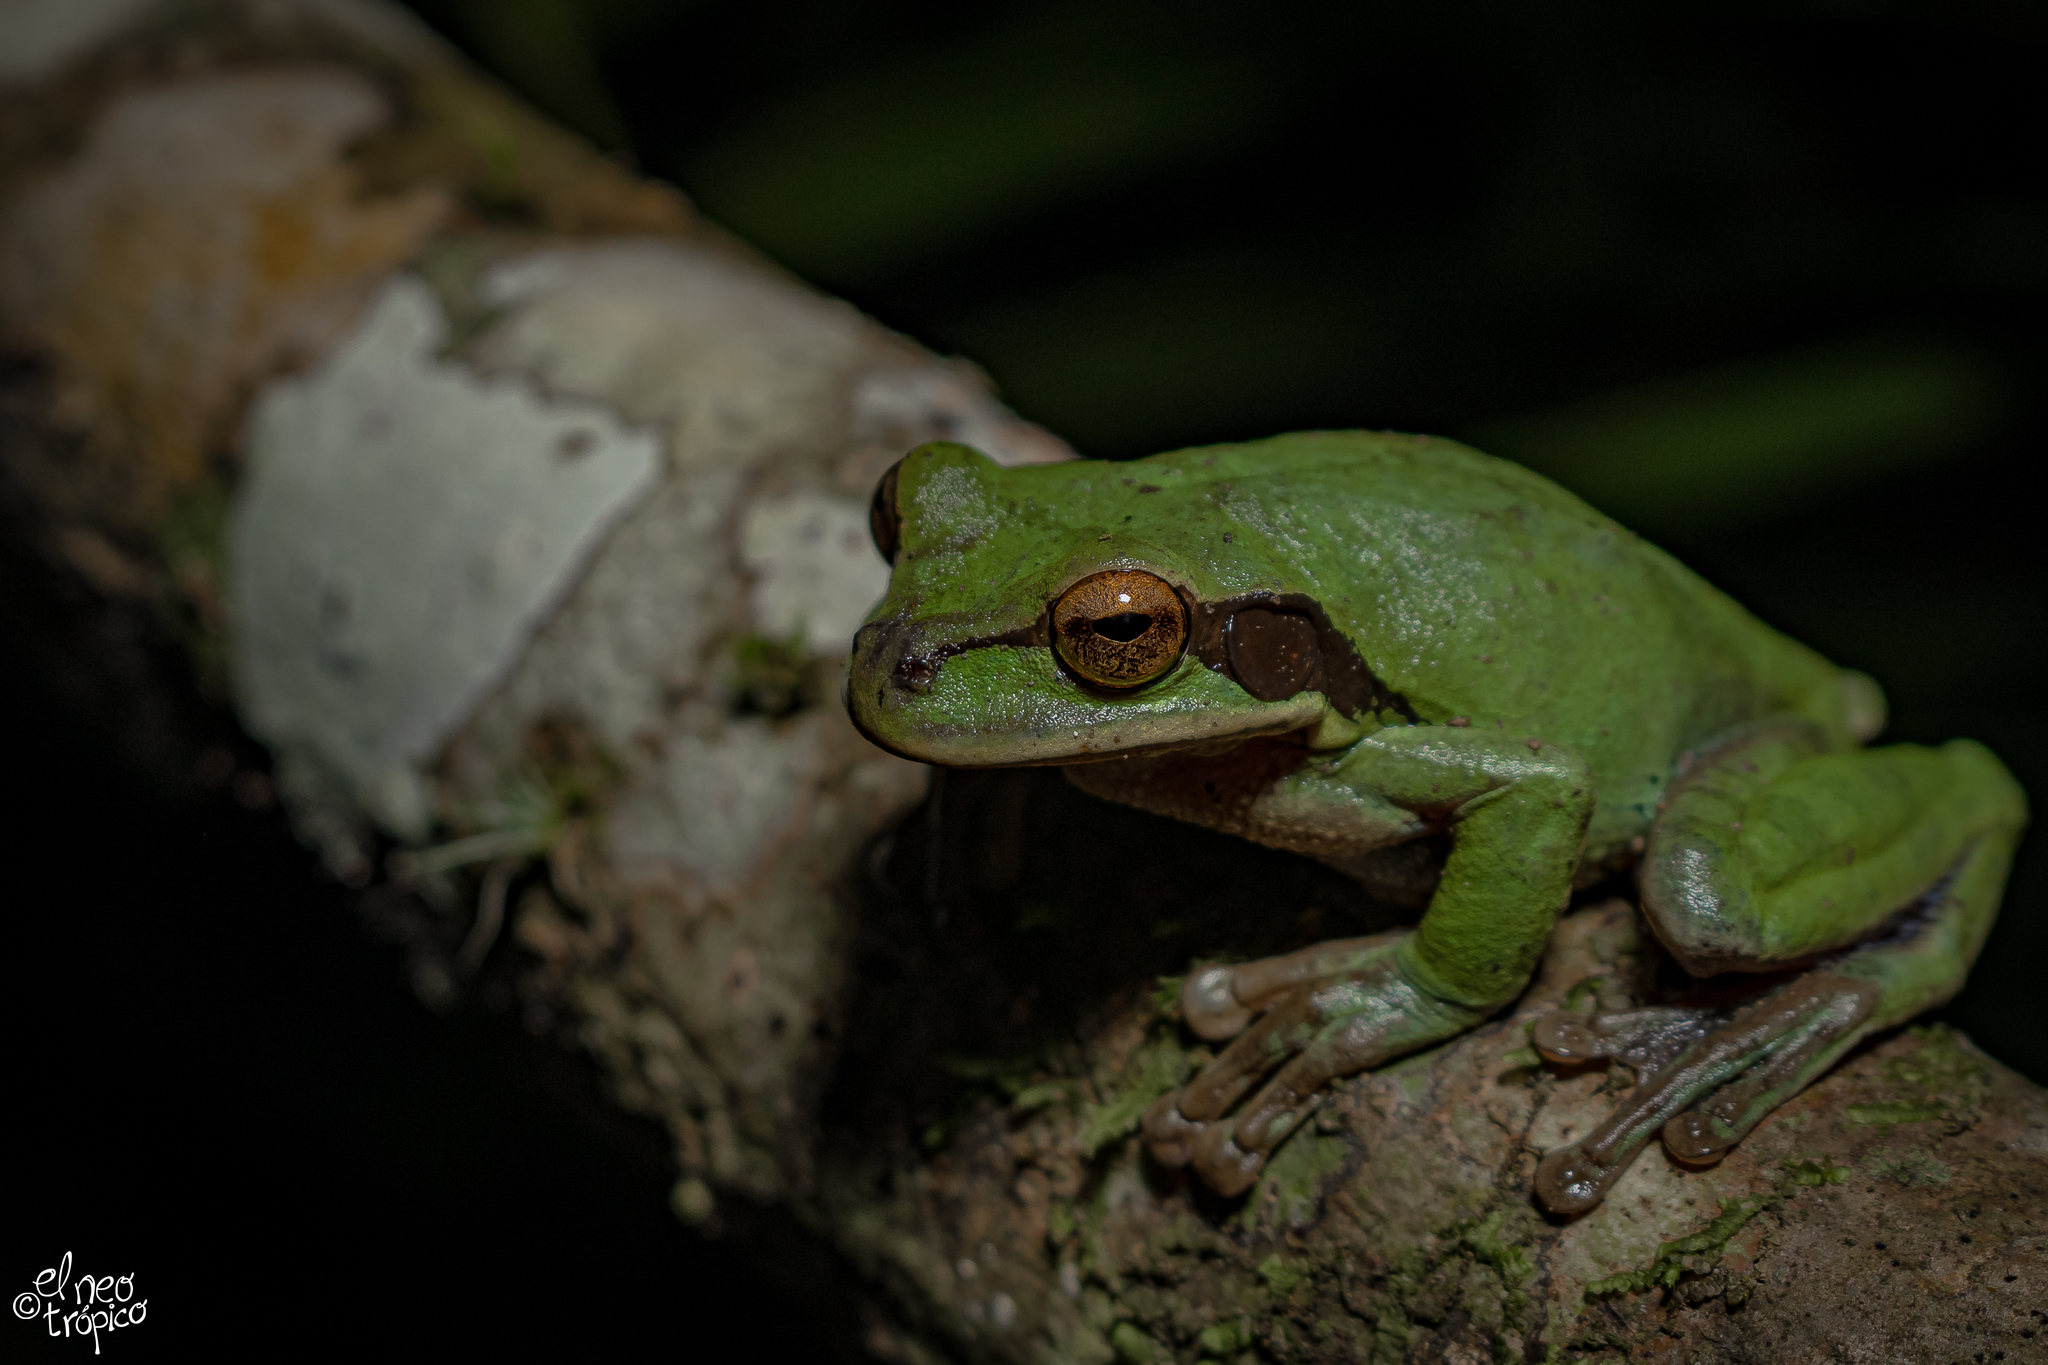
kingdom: Animalia
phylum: Chordata
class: Amphibia
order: Anura
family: Hylidae
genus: Smilisca
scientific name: Smilisca cyanosticta
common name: Blue-spotted mexican treefrog
